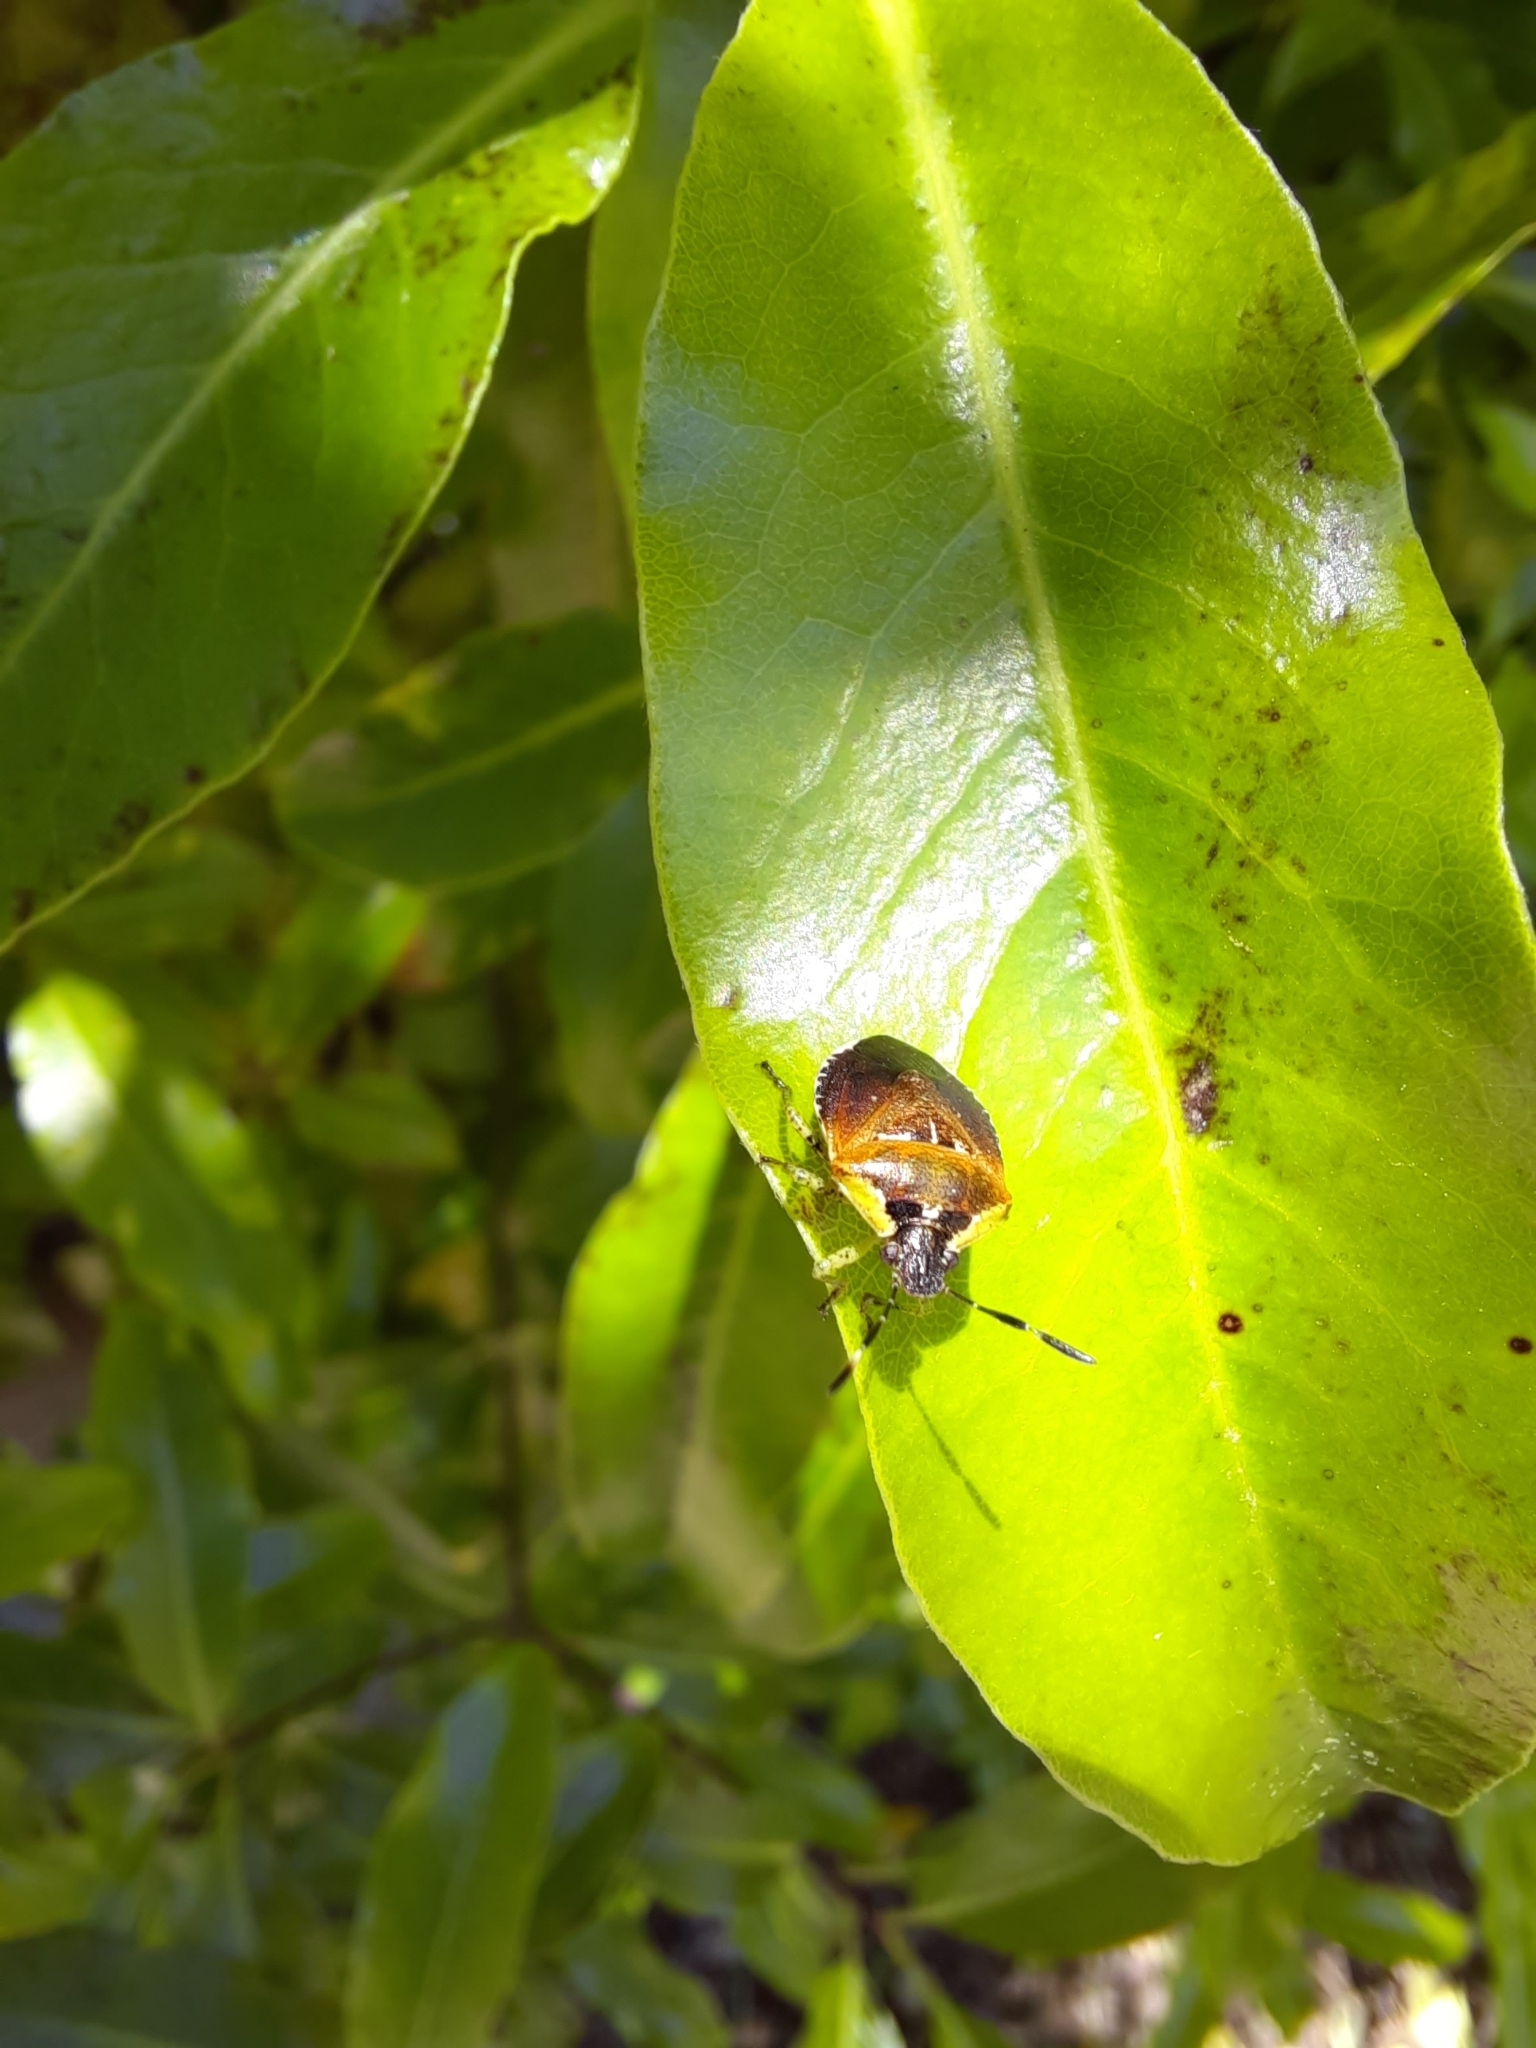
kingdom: Animalia
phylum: Arthropoda
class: Insecta
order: Hemiptera
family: Pentatomidae
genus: Monteithiella
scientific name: Monteithiella
